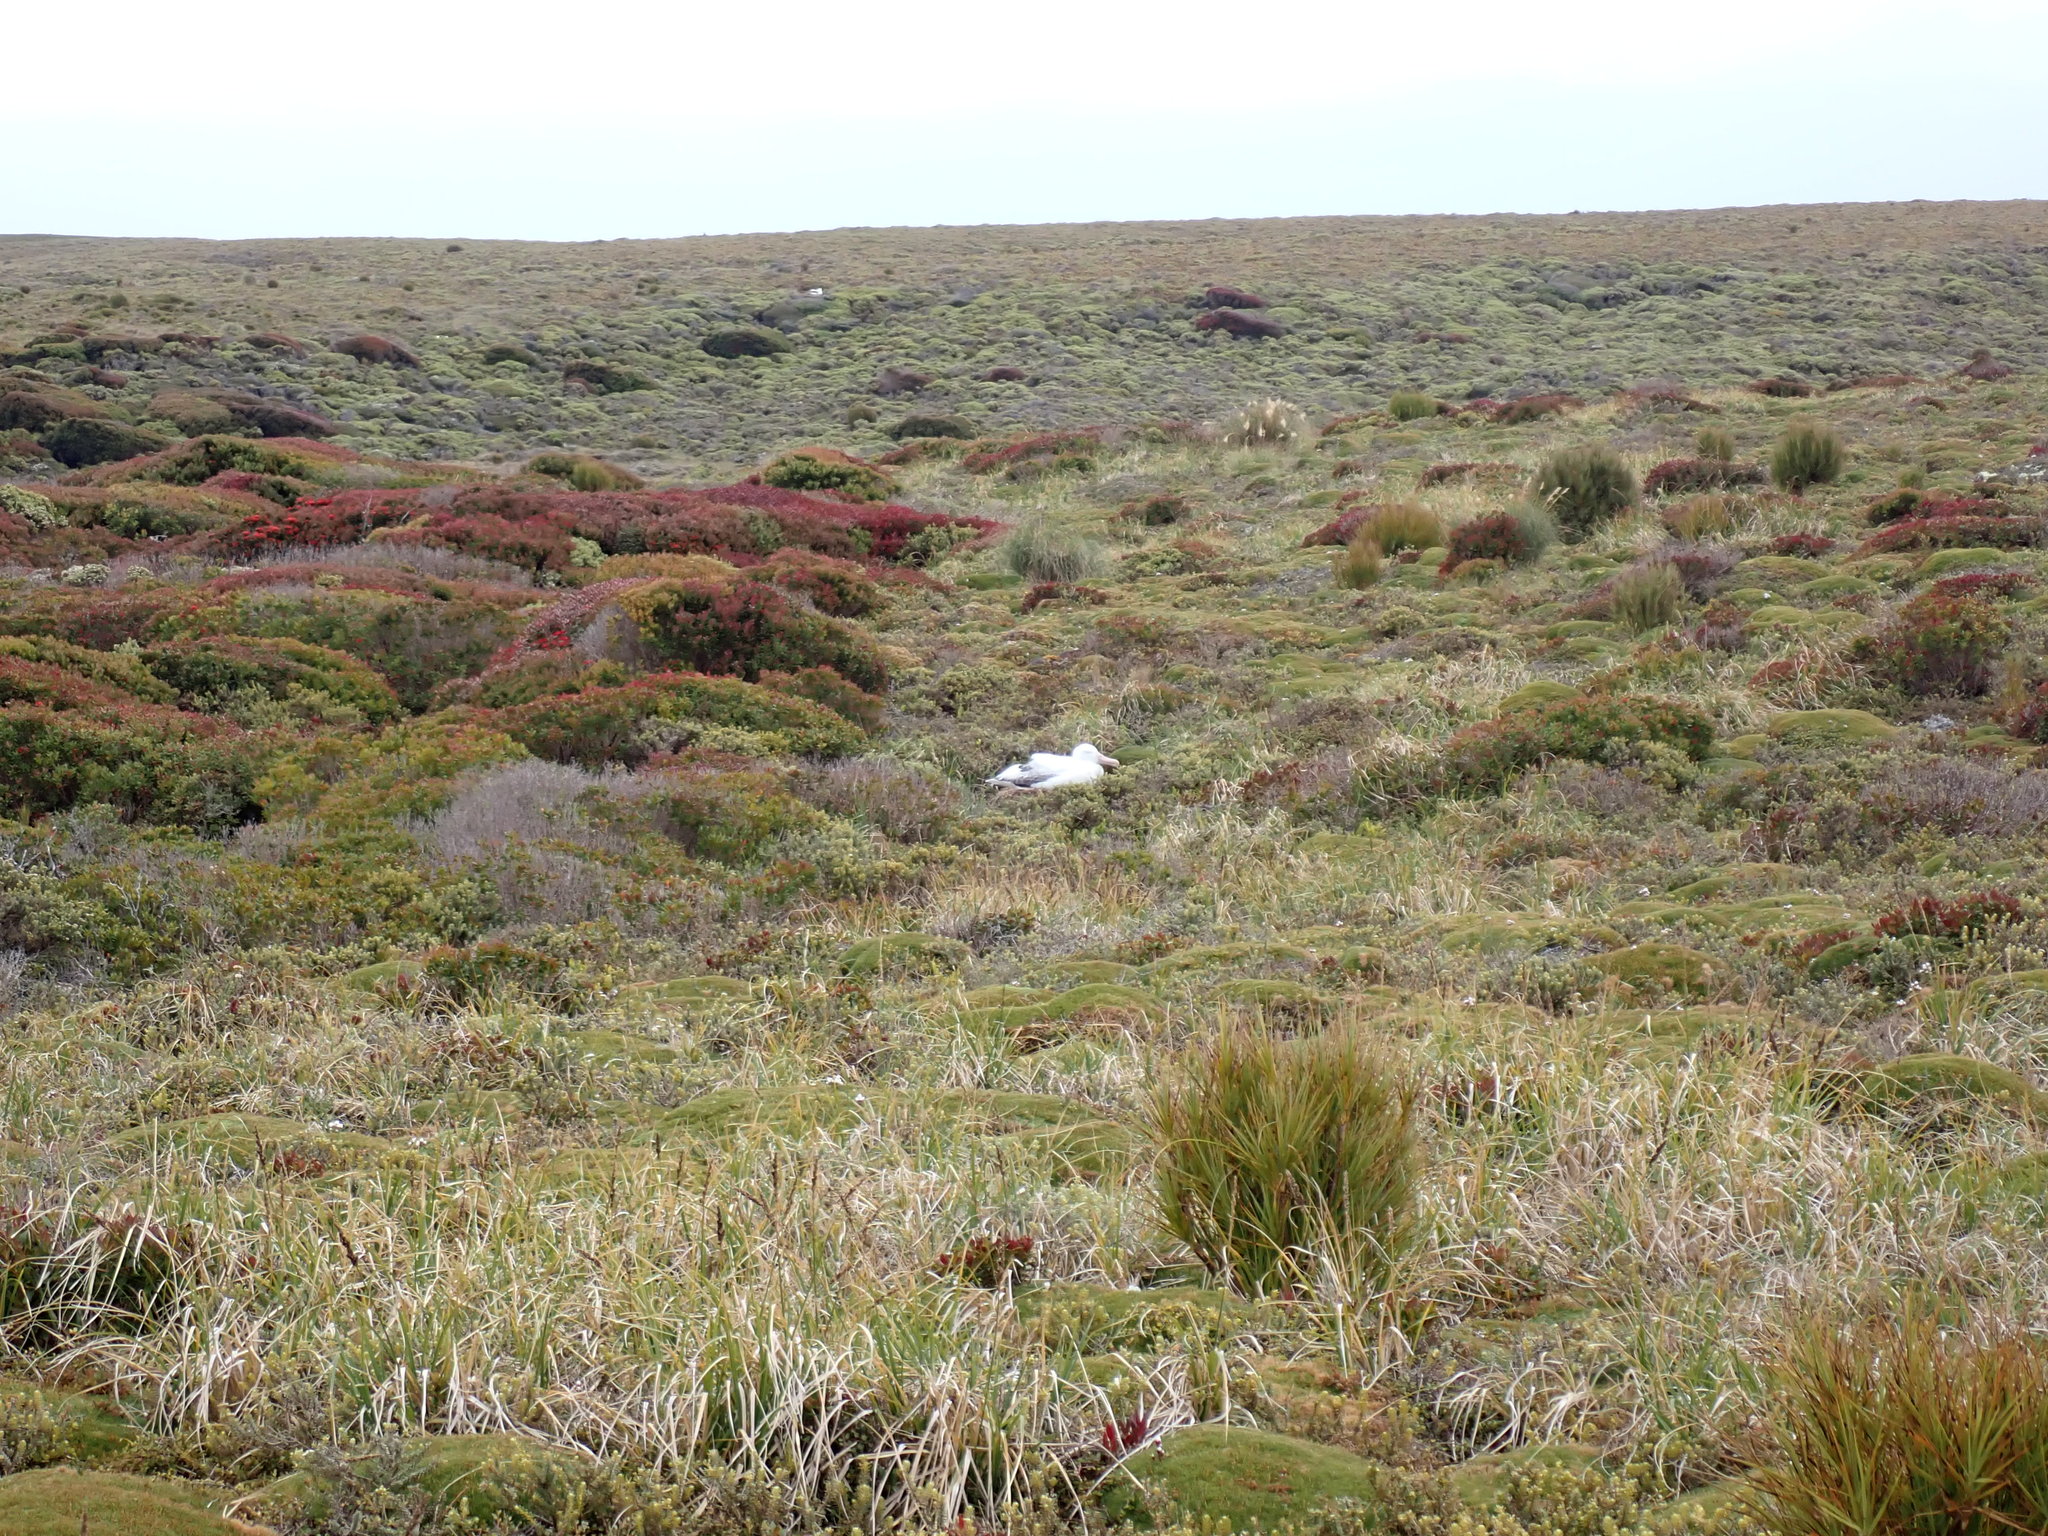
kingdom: Animalia
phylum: Chordata
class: Aves
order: Procellariiformes
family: Diomedeidae
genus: Diomedea
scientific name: Diomedea antipodensis
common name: Antipodean albatross
